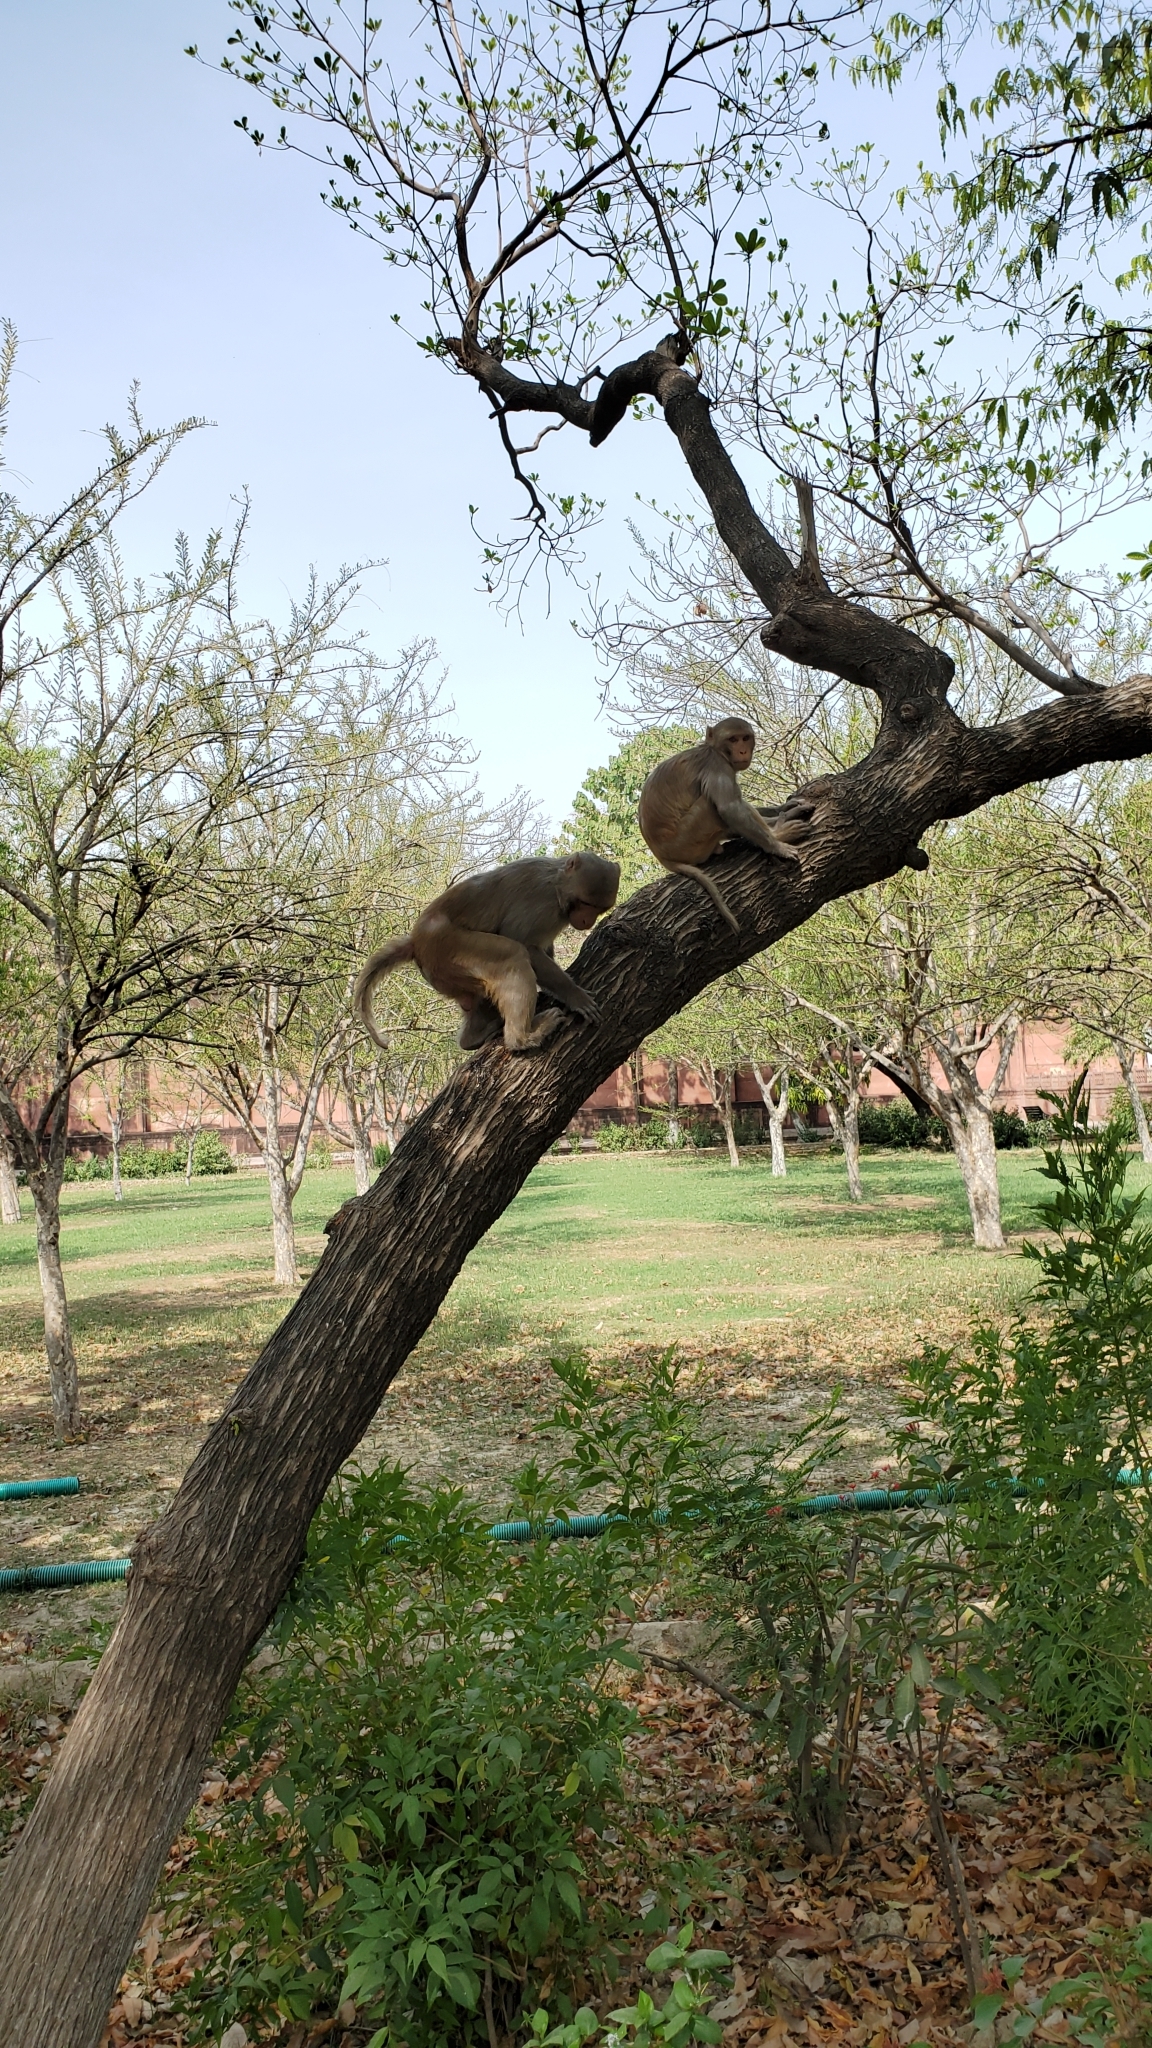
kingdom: Animalia
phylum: Chordata
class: Mammalia
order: Primates
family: Cercopithecidae
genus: Macaca
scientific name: Macaca mulatta
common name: Rhesus monkey
